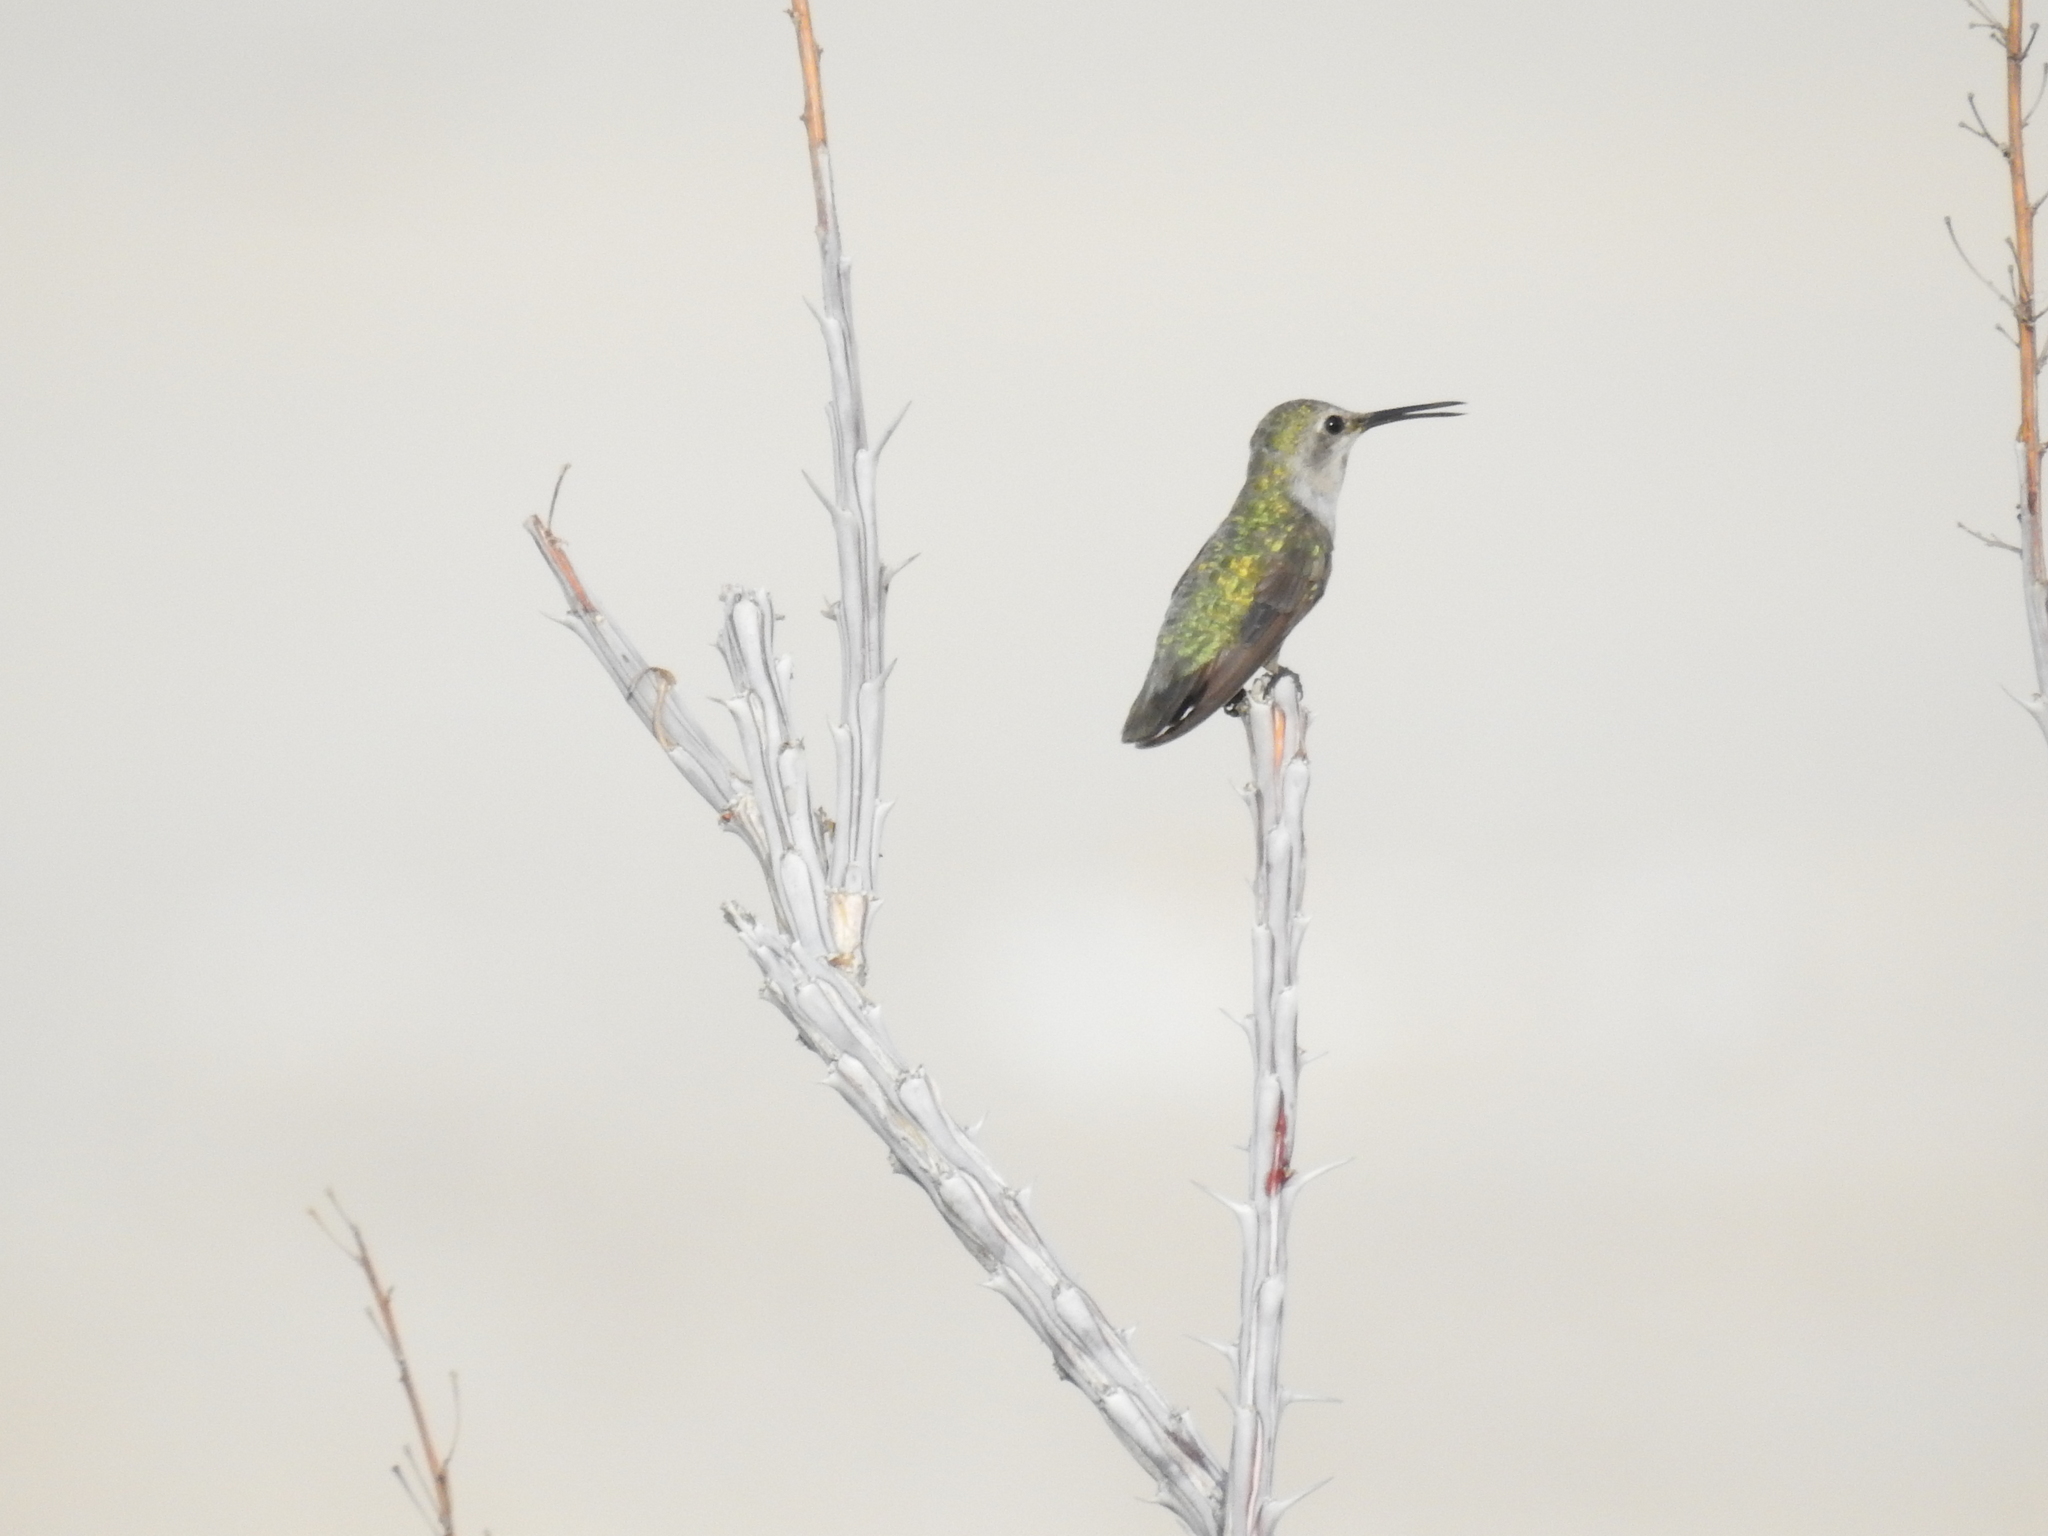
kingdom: Animalia
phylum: Chordata
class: Aves
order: Apodiformes
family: Trochilidae
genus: Calypte
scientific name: Calypte costae
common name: Costa's hummingbird
